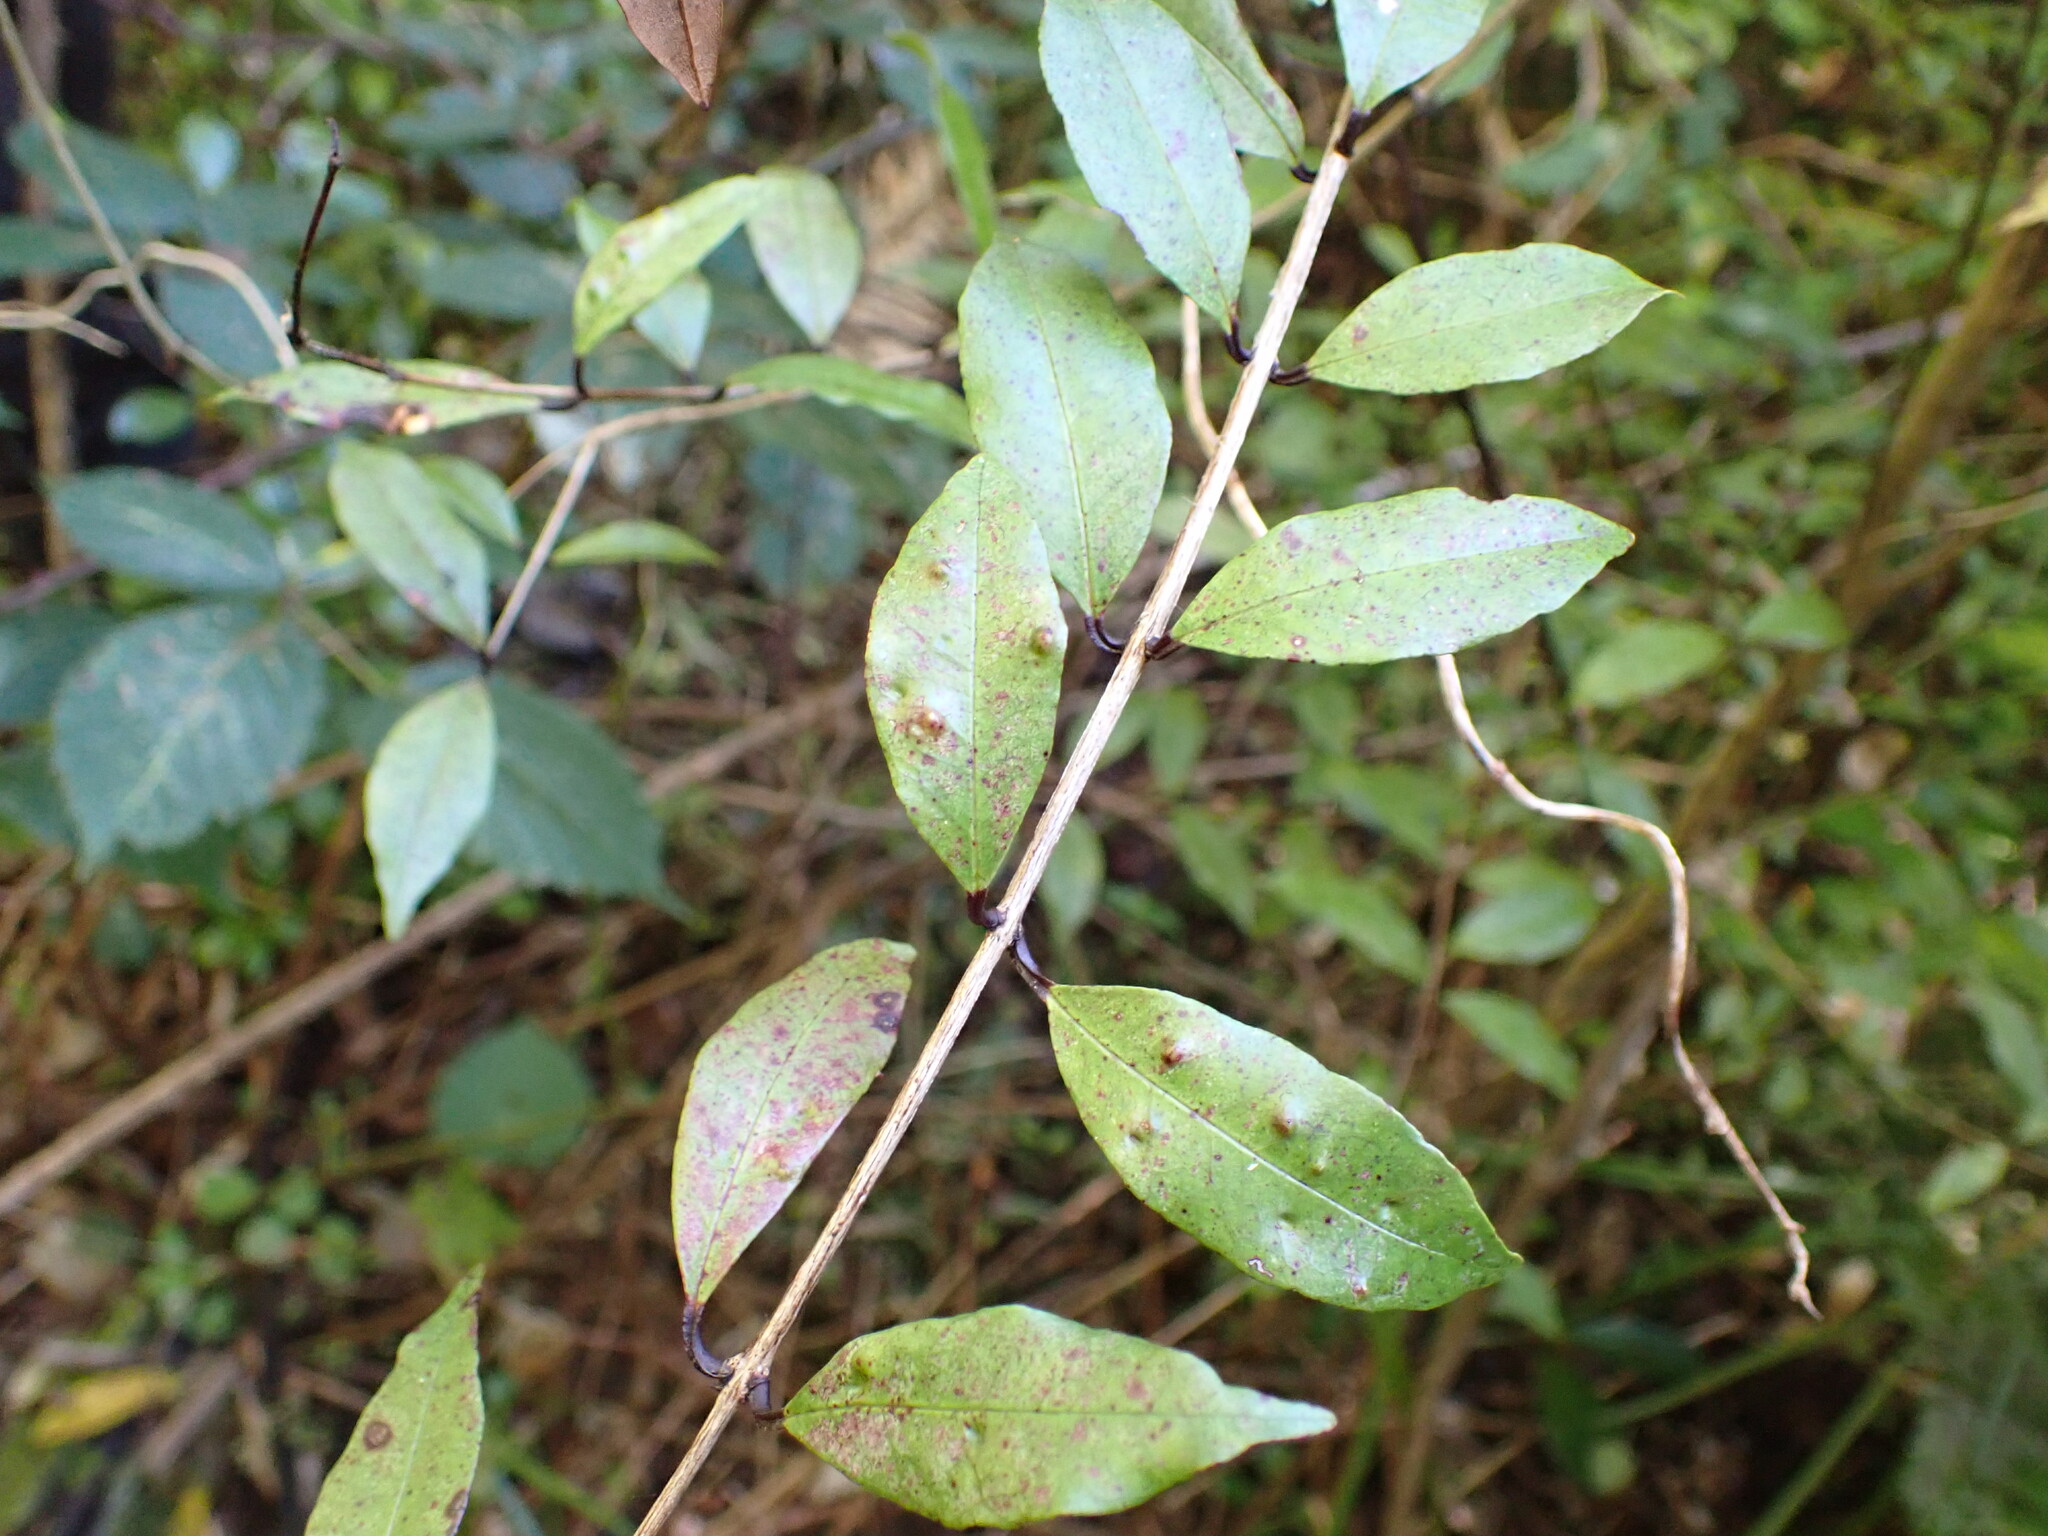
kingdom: Plantae
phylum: Tracheophyta
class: Magnoliopsida
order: Myrtales
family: Myrtaceae
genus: Syzygium
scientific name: Syzygium maire
